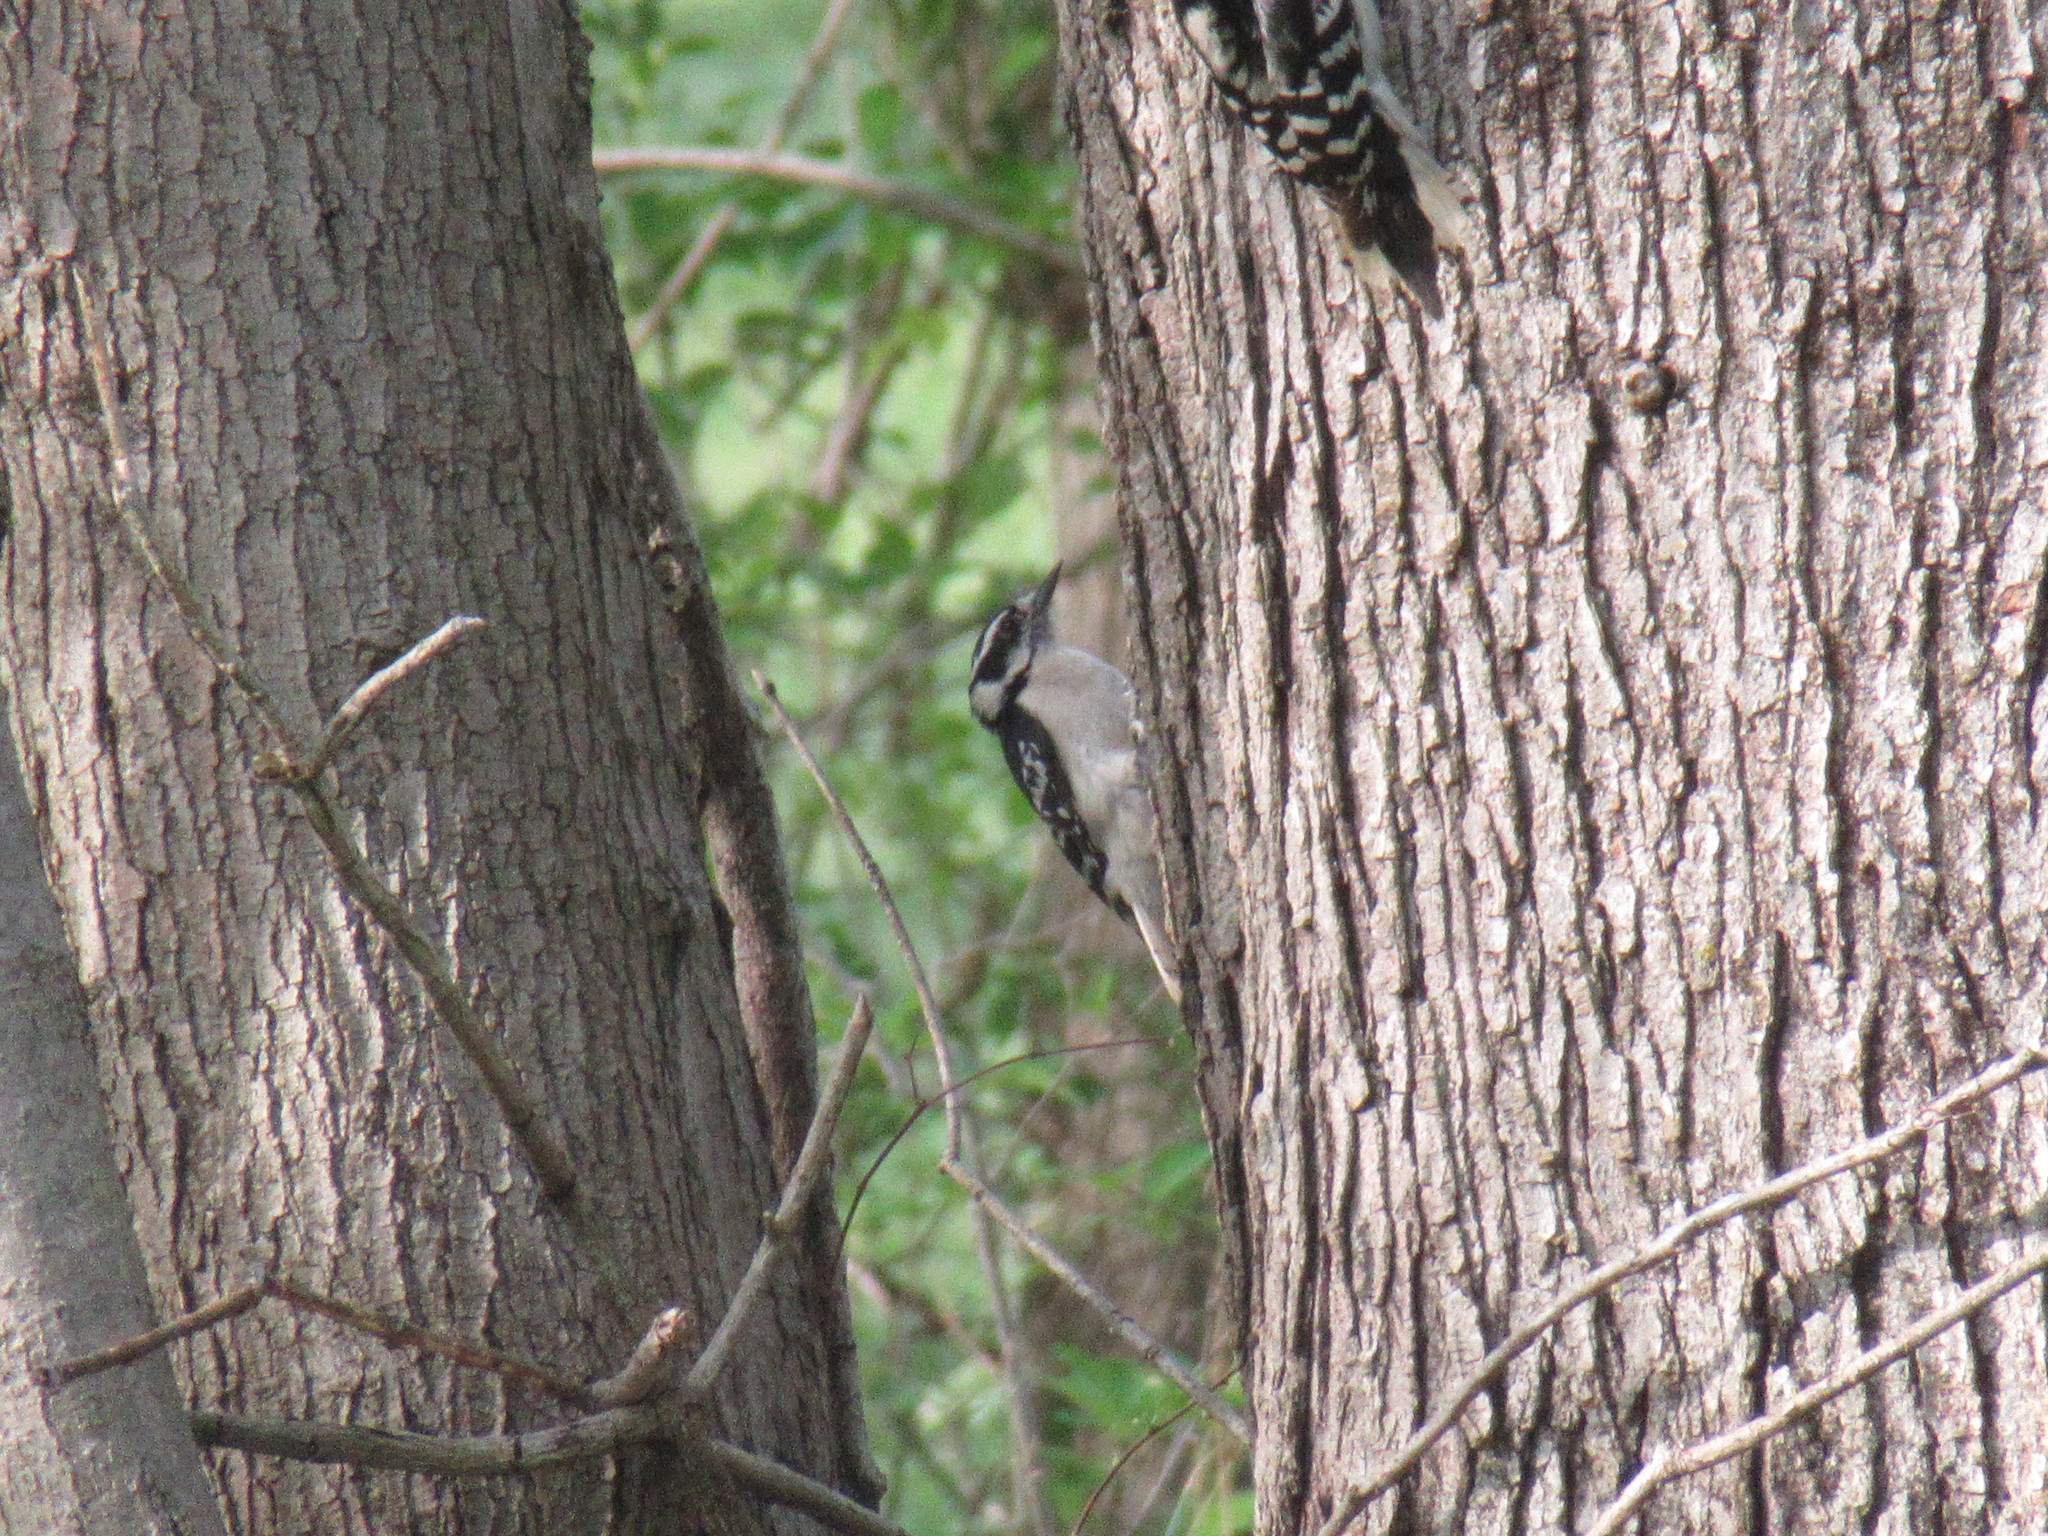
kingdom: Animalia
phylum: Chordata
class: Aves
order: Piciformes
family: Picidae
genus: Dryobates
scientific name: Dryobates pubescens
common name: Downy woodpecker
